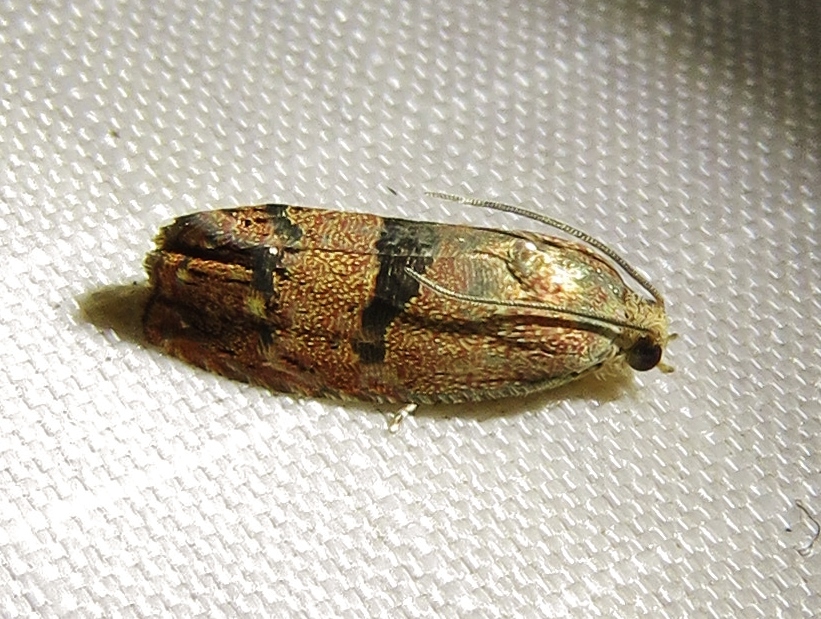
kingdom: Animalia
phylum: Arthropoda
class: Insecta
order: Lepidoptera
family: Tortricidae
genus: Cydia
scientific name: Cydia latiferreana
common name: Filbertworm moth
